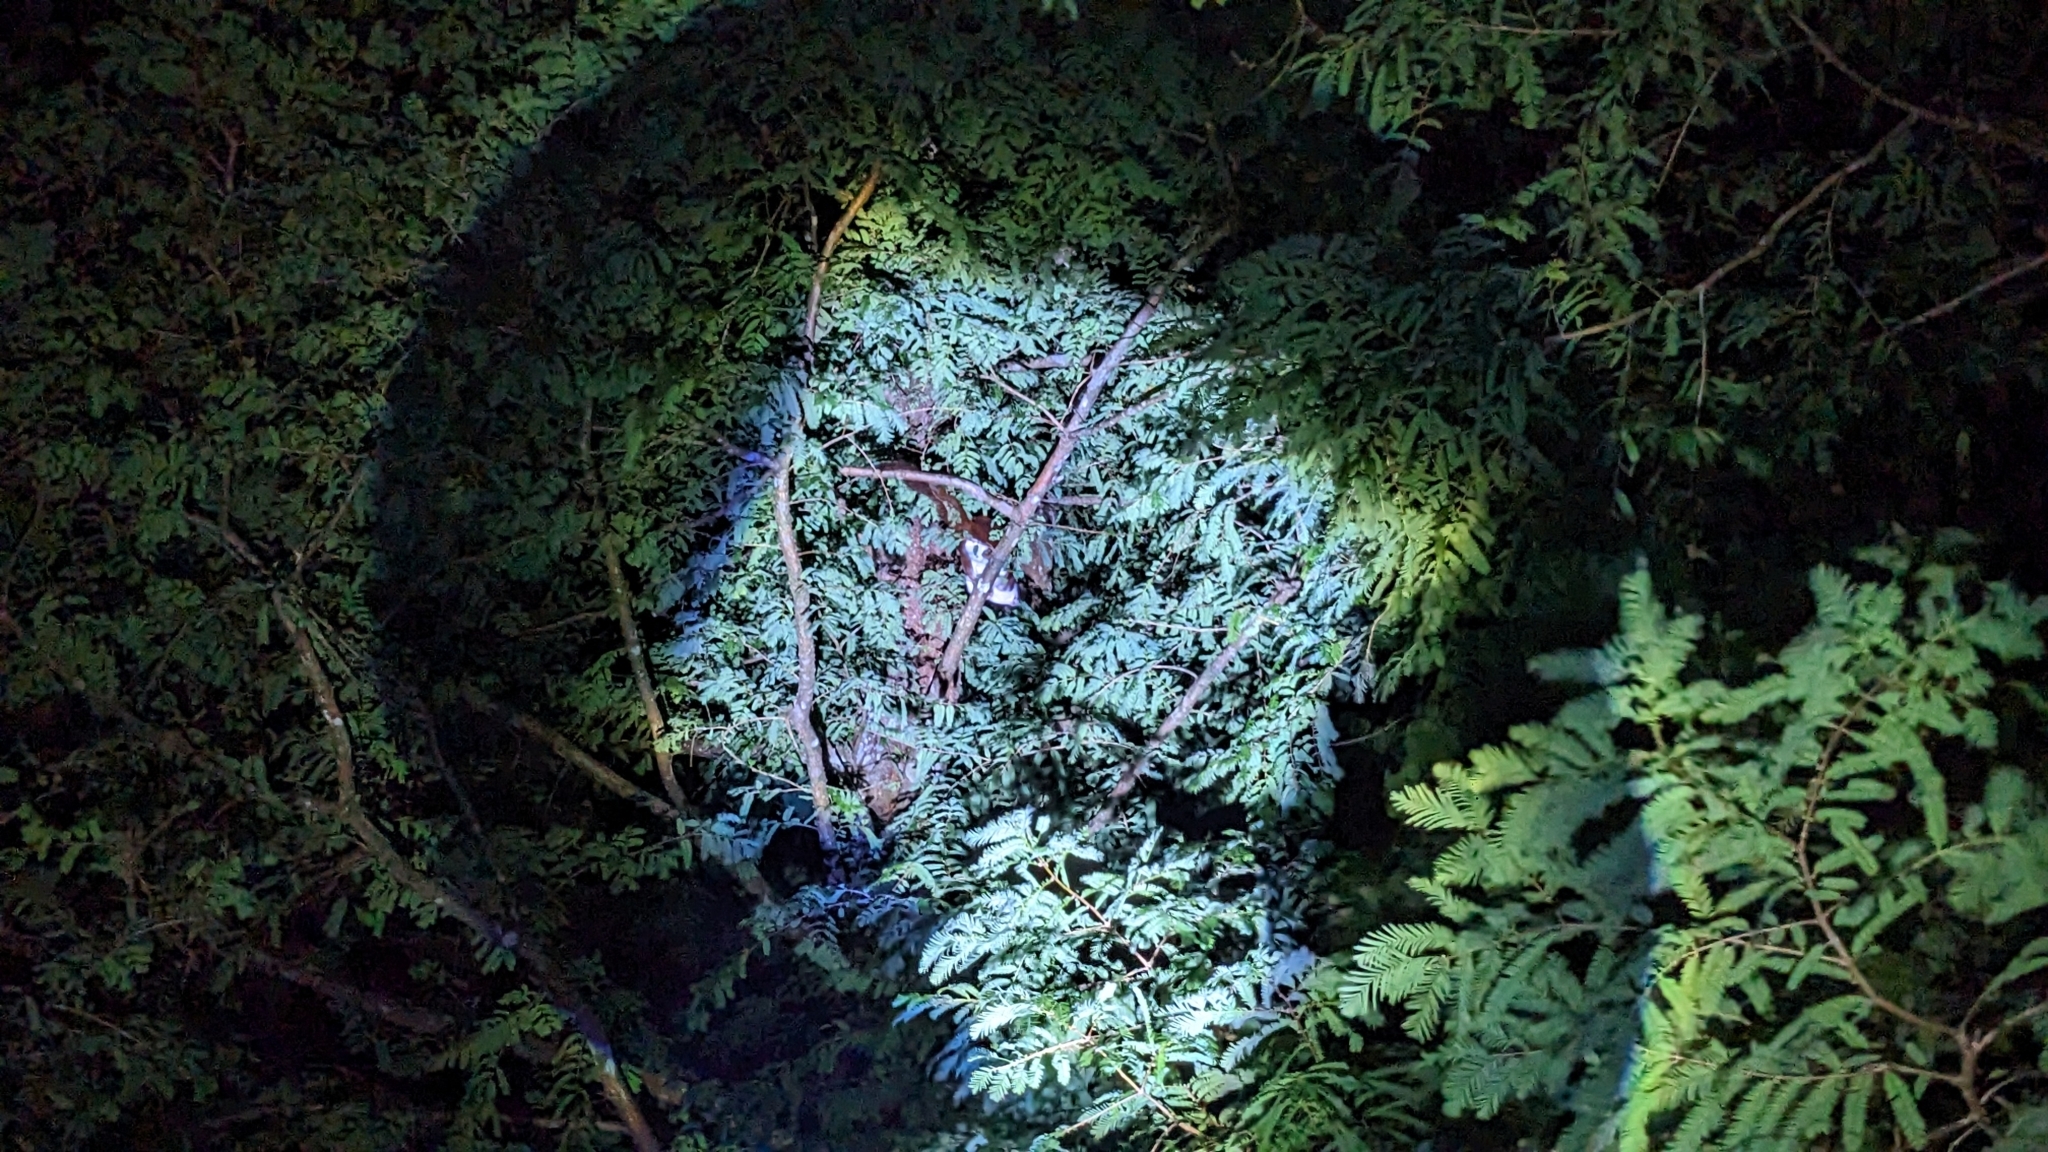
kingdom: Animalia
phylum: Chordata
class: Mammalia
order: Rodentia
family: Sciuridae
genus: Petaurista
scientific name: Petaurista lena
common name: Taiwan giant flying squirrel
